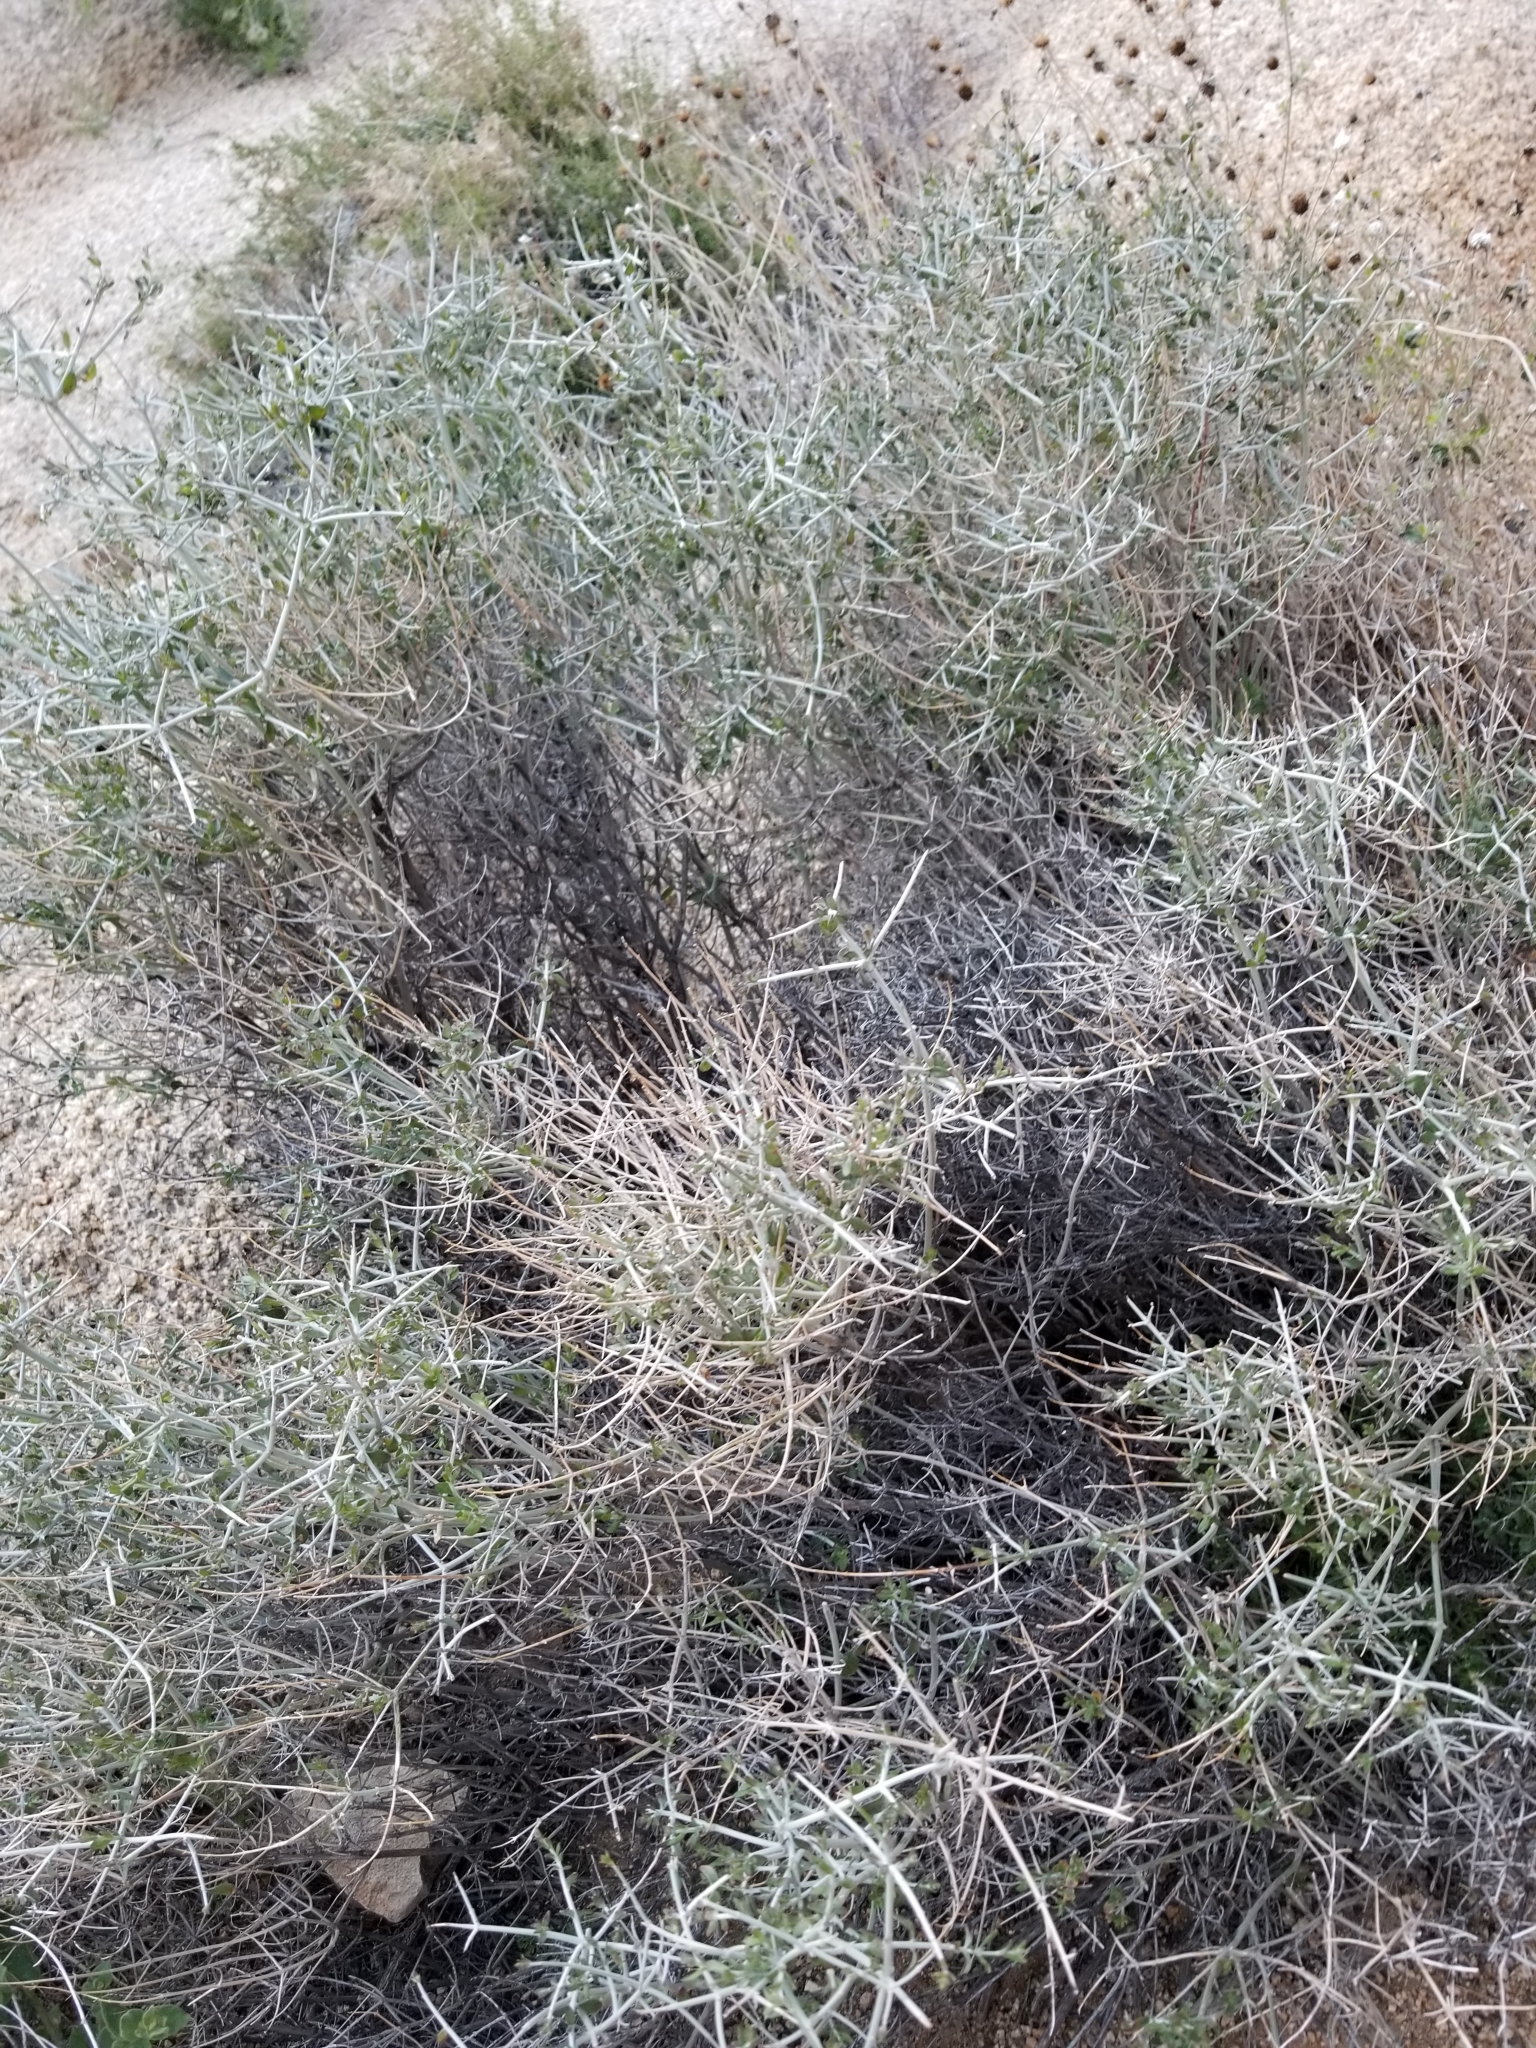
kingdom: Plantae
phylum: Tracheophyta
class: Magnoliopsida
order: Lamiales
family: Lamiaceae
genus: Scutellaria
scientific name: Scutellaria mexicana
